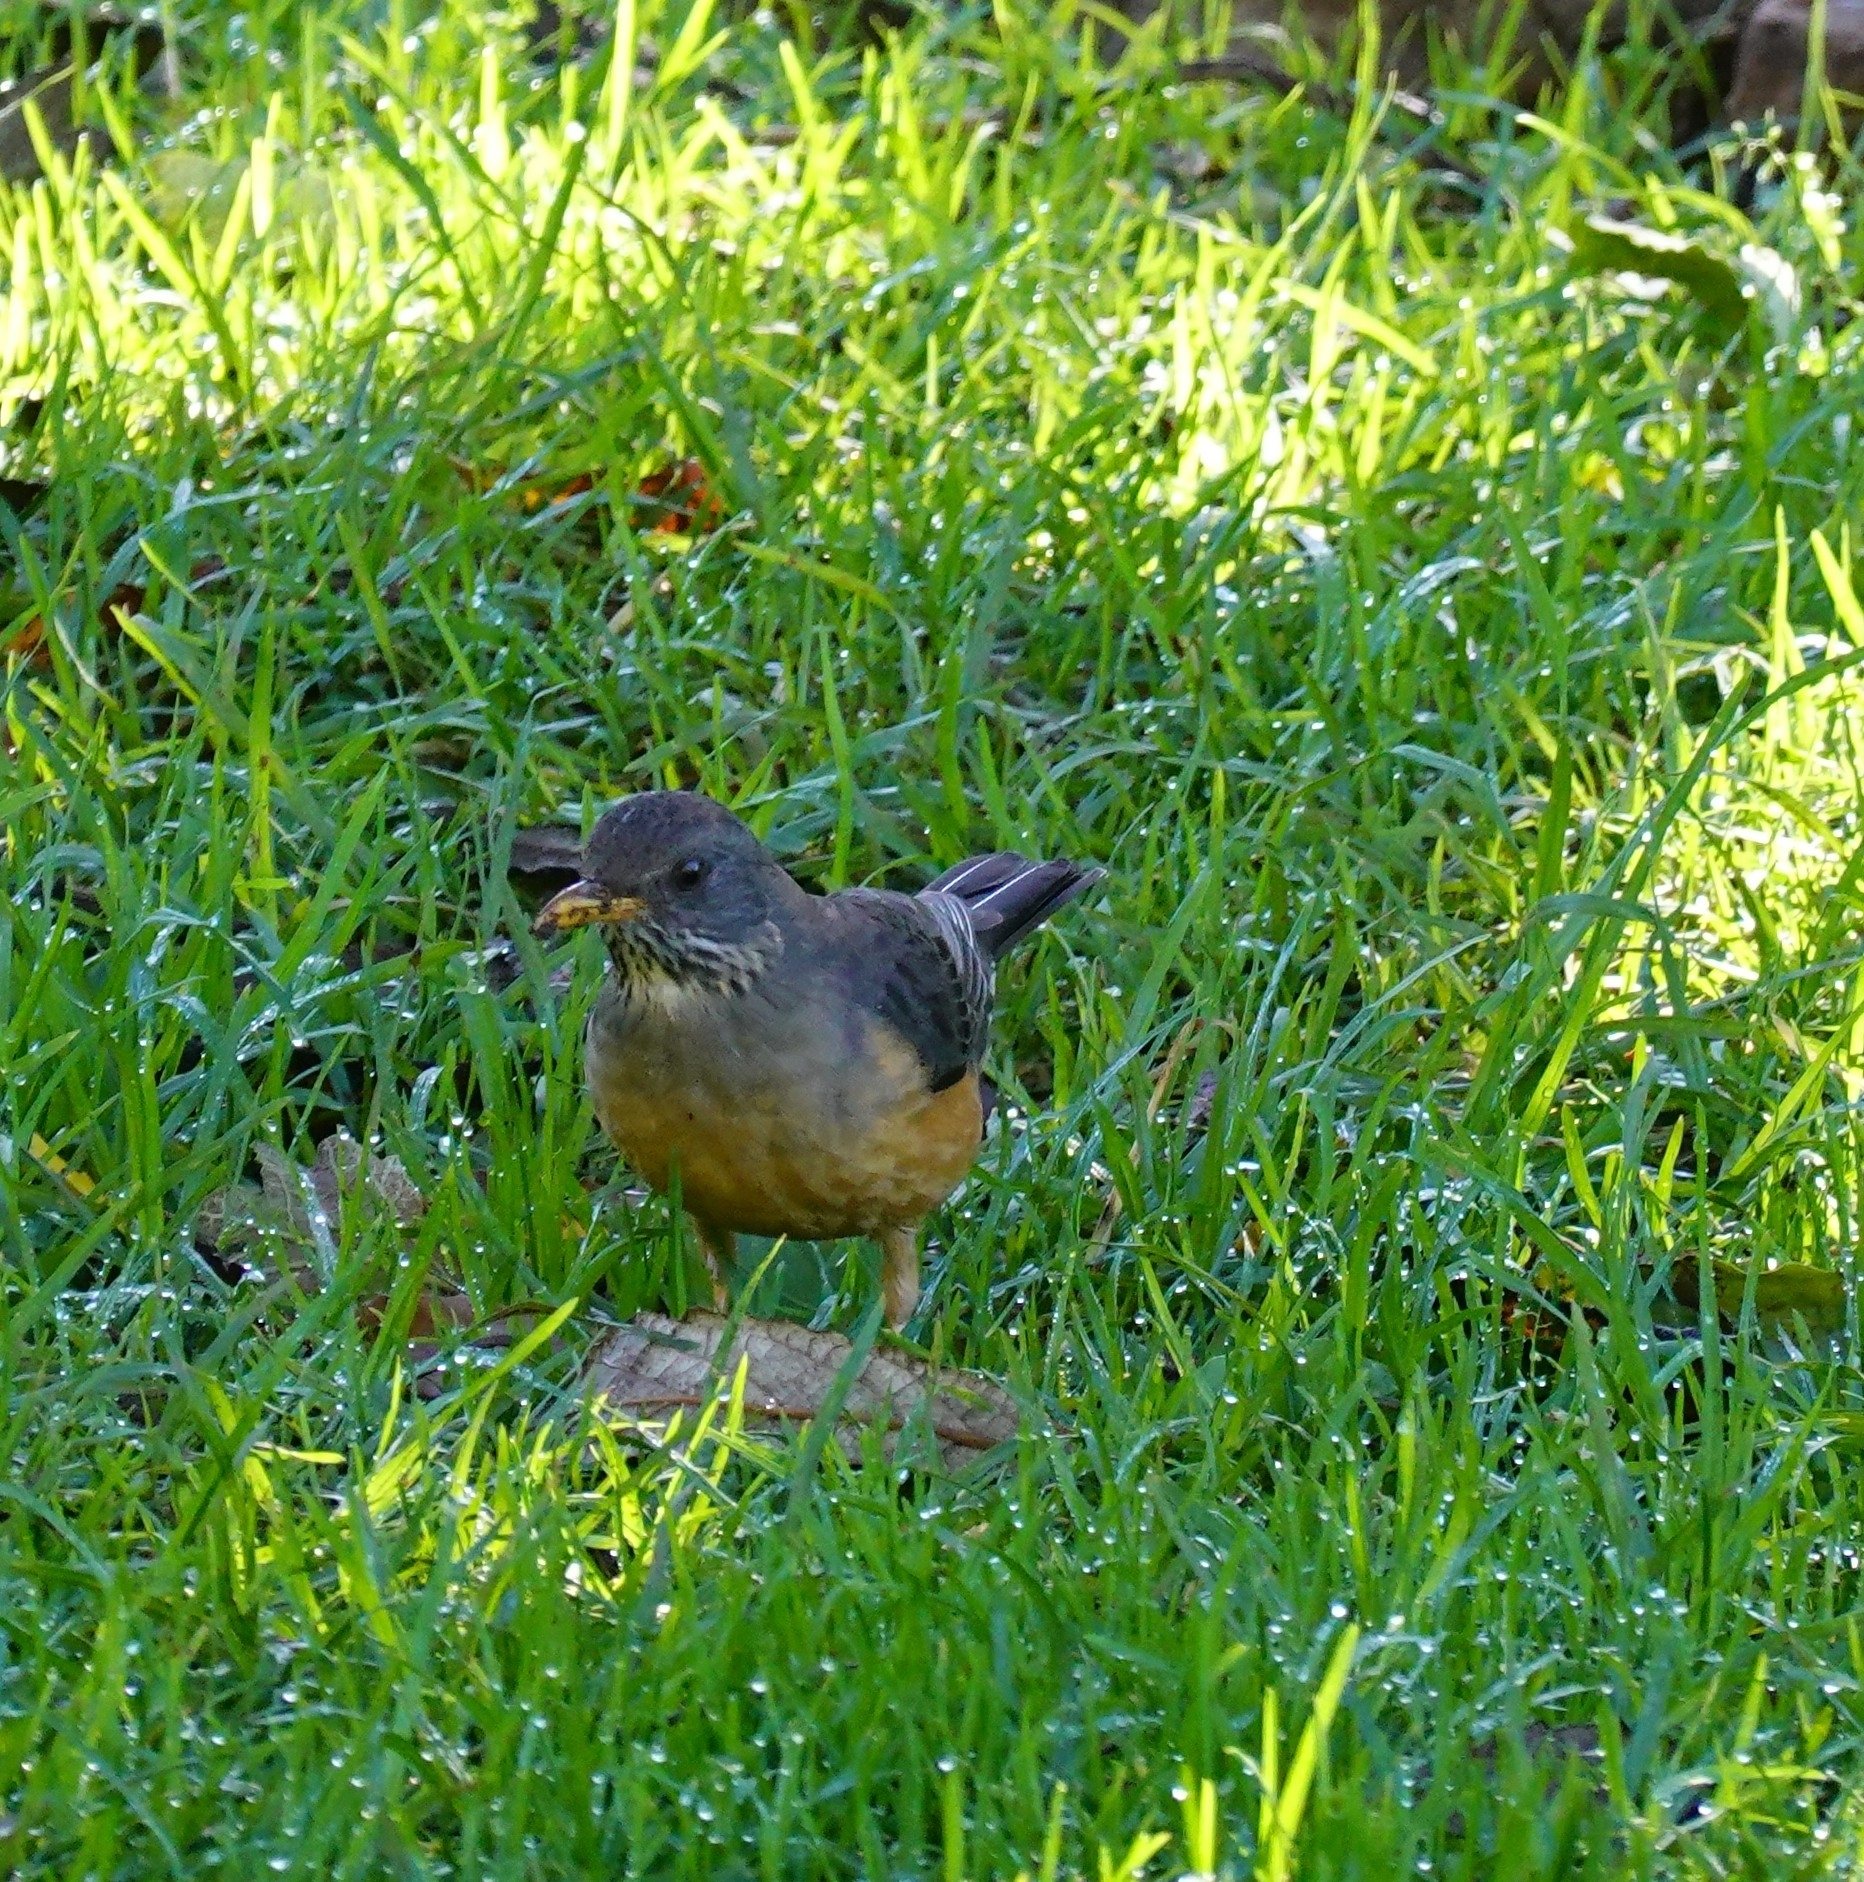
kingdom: Animalia
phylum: Chordata
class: Aves
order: Passeriformes
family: Turdidae
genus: Turdus
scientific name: Turdus olivaceus
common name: Olive thrush
